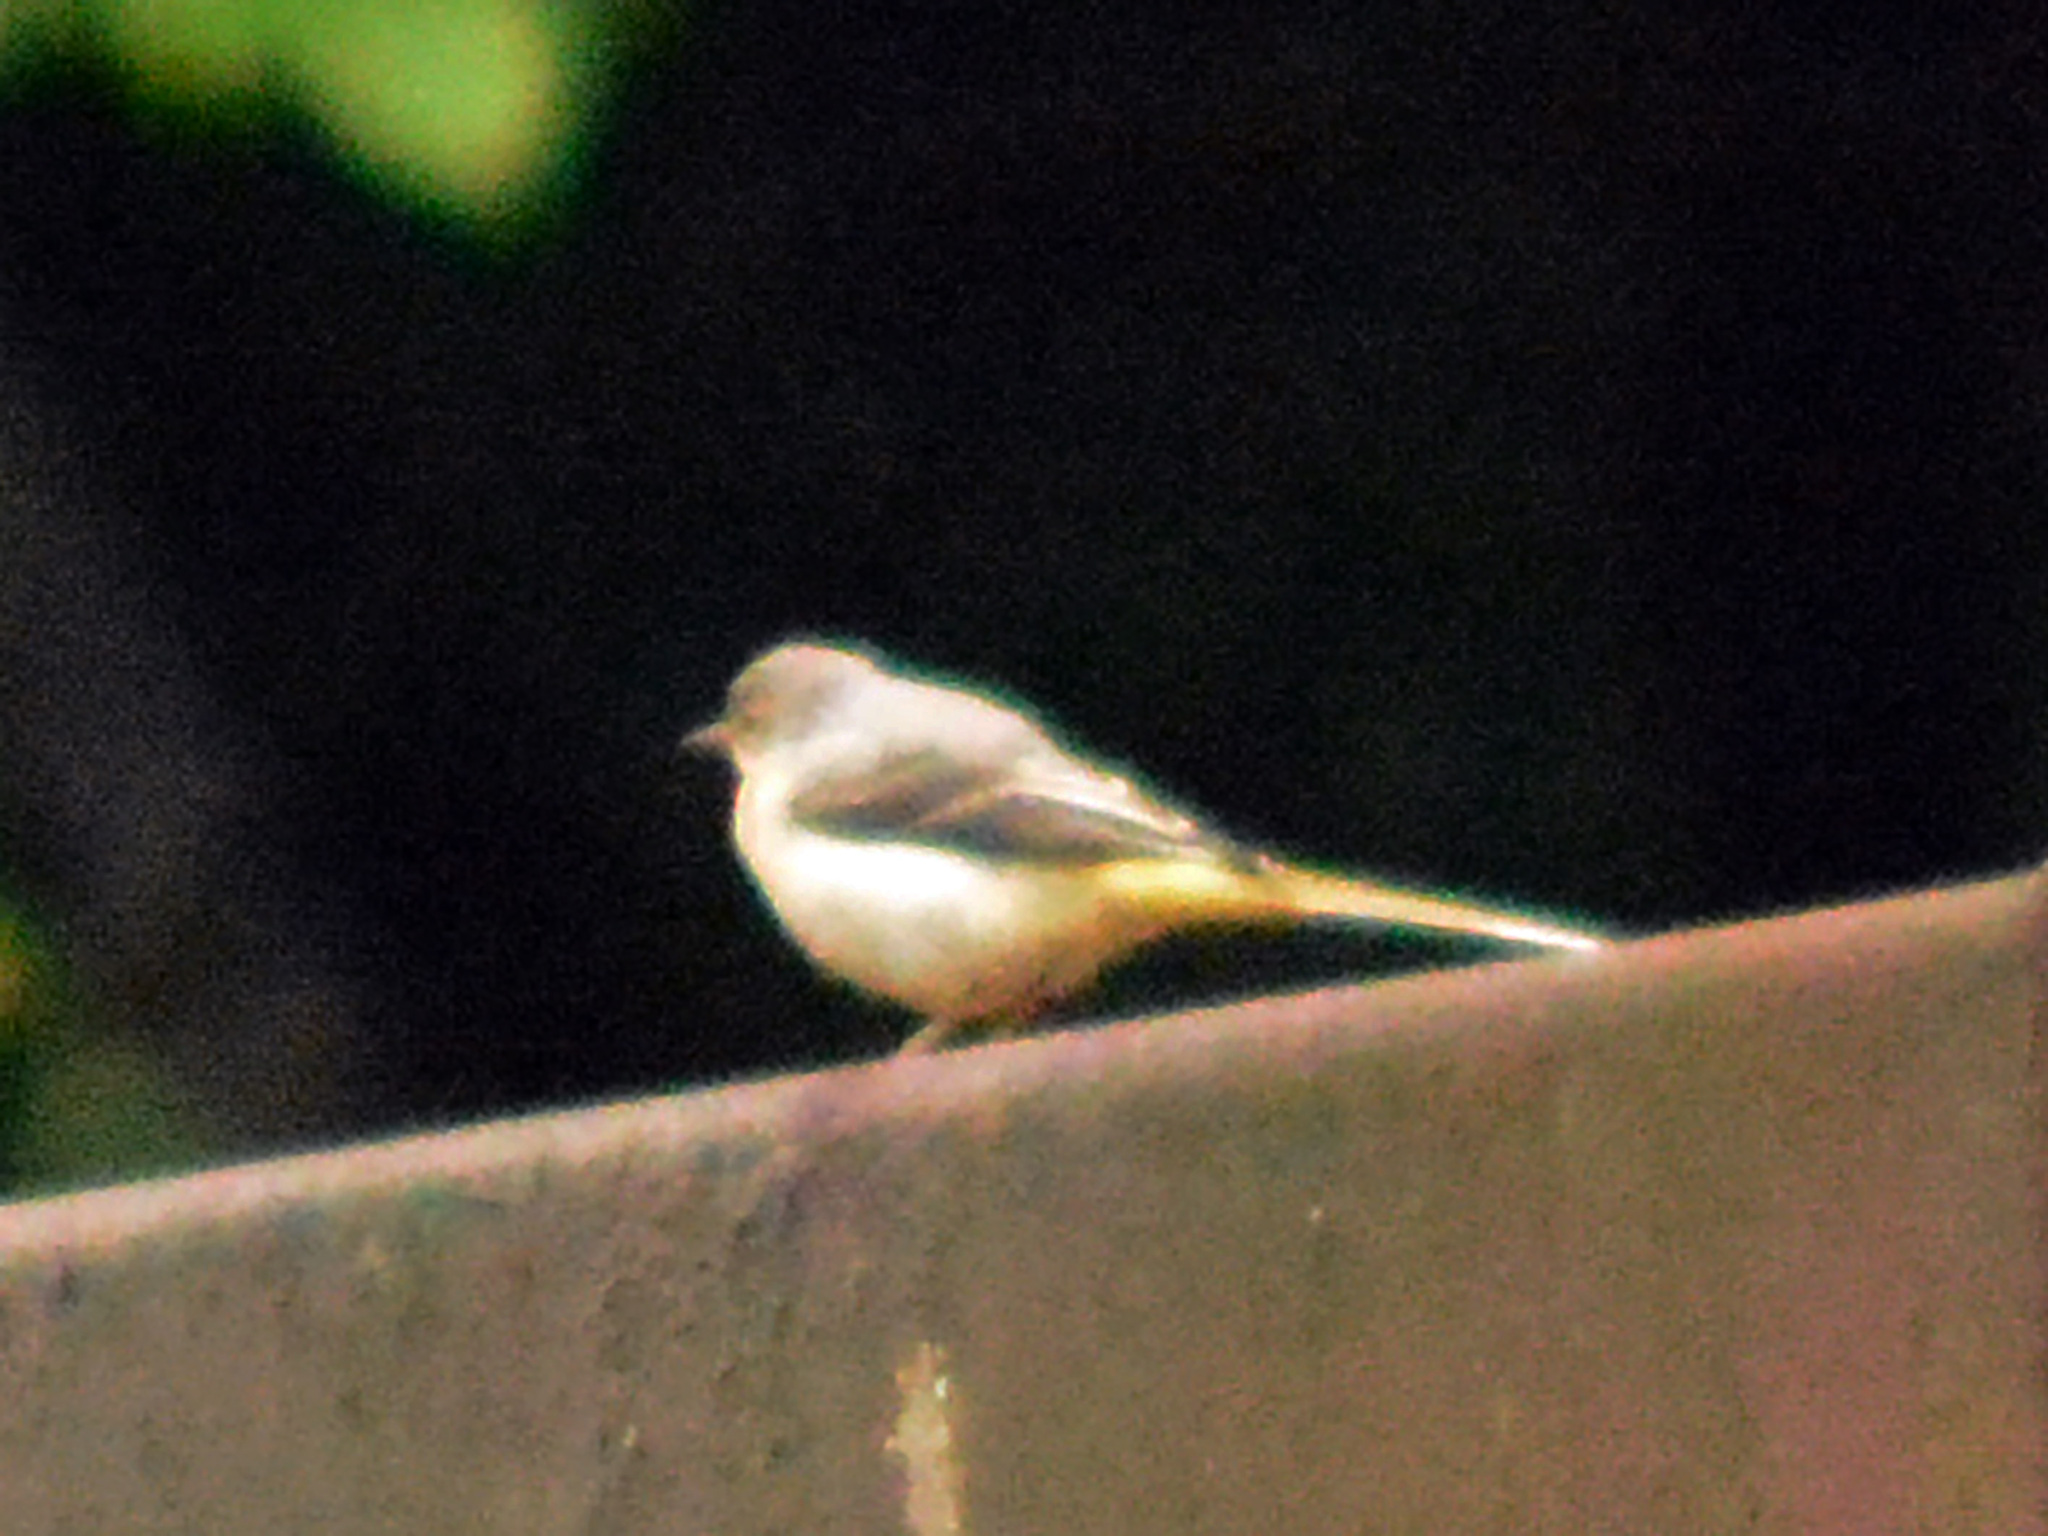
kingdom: Animalia
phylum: Chordata
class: Aves
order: Passeriformes
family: Motacillidae
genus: Motacilla
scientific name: Motacilla cinerea
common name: Grey wagtail
